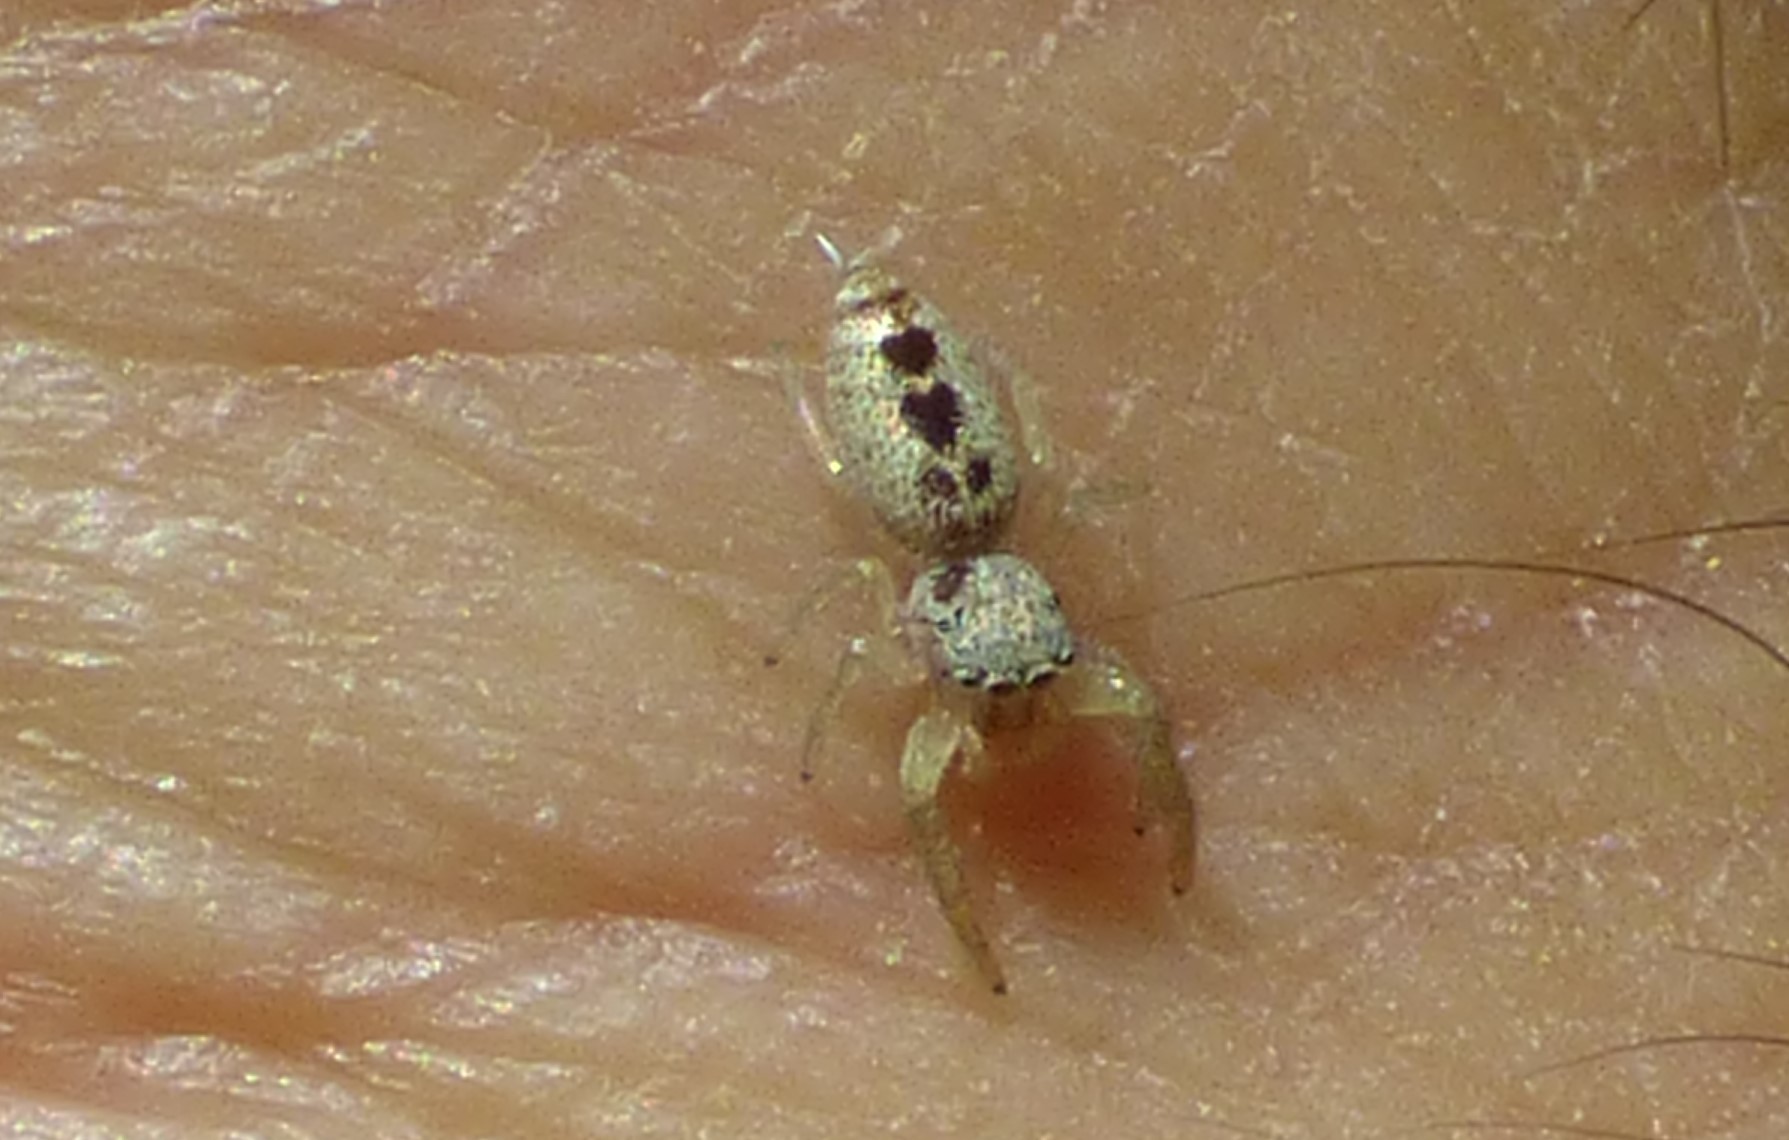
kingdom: Animalia
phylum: Arthropoda
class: Arachnida
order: Araneae
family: Salticidae
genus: Hentzia
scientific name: Hentzia mitrata
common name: White-jawed jumping spider
